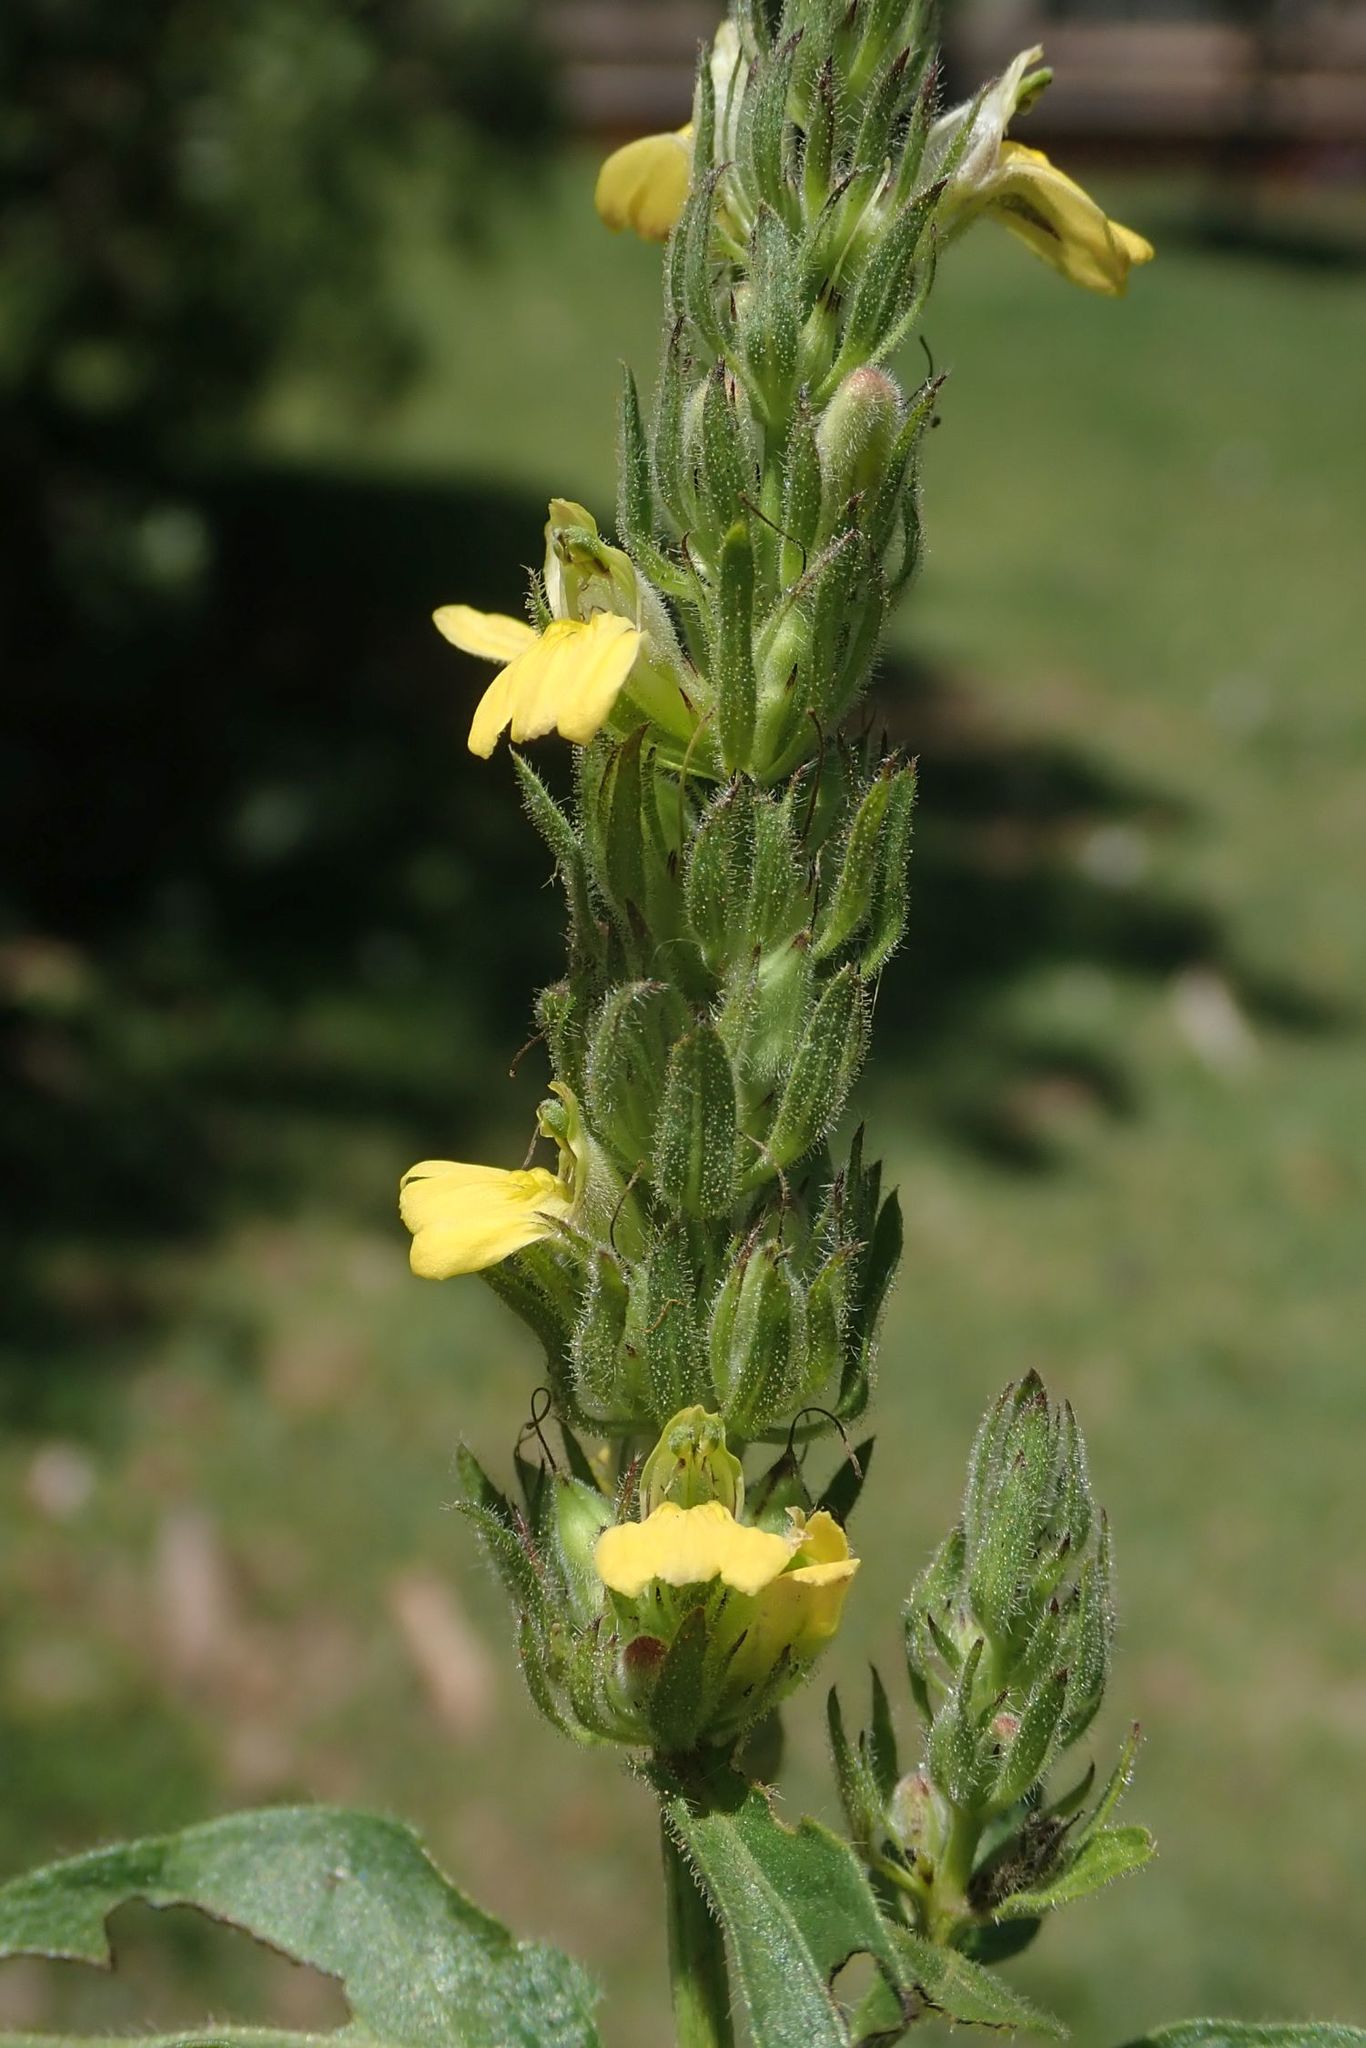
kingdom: Plantae
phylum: Tracheophyta
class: Magnoliopsida
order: Lamiales
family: Acanthaceae
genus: Justicia
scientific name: Justicia flava
